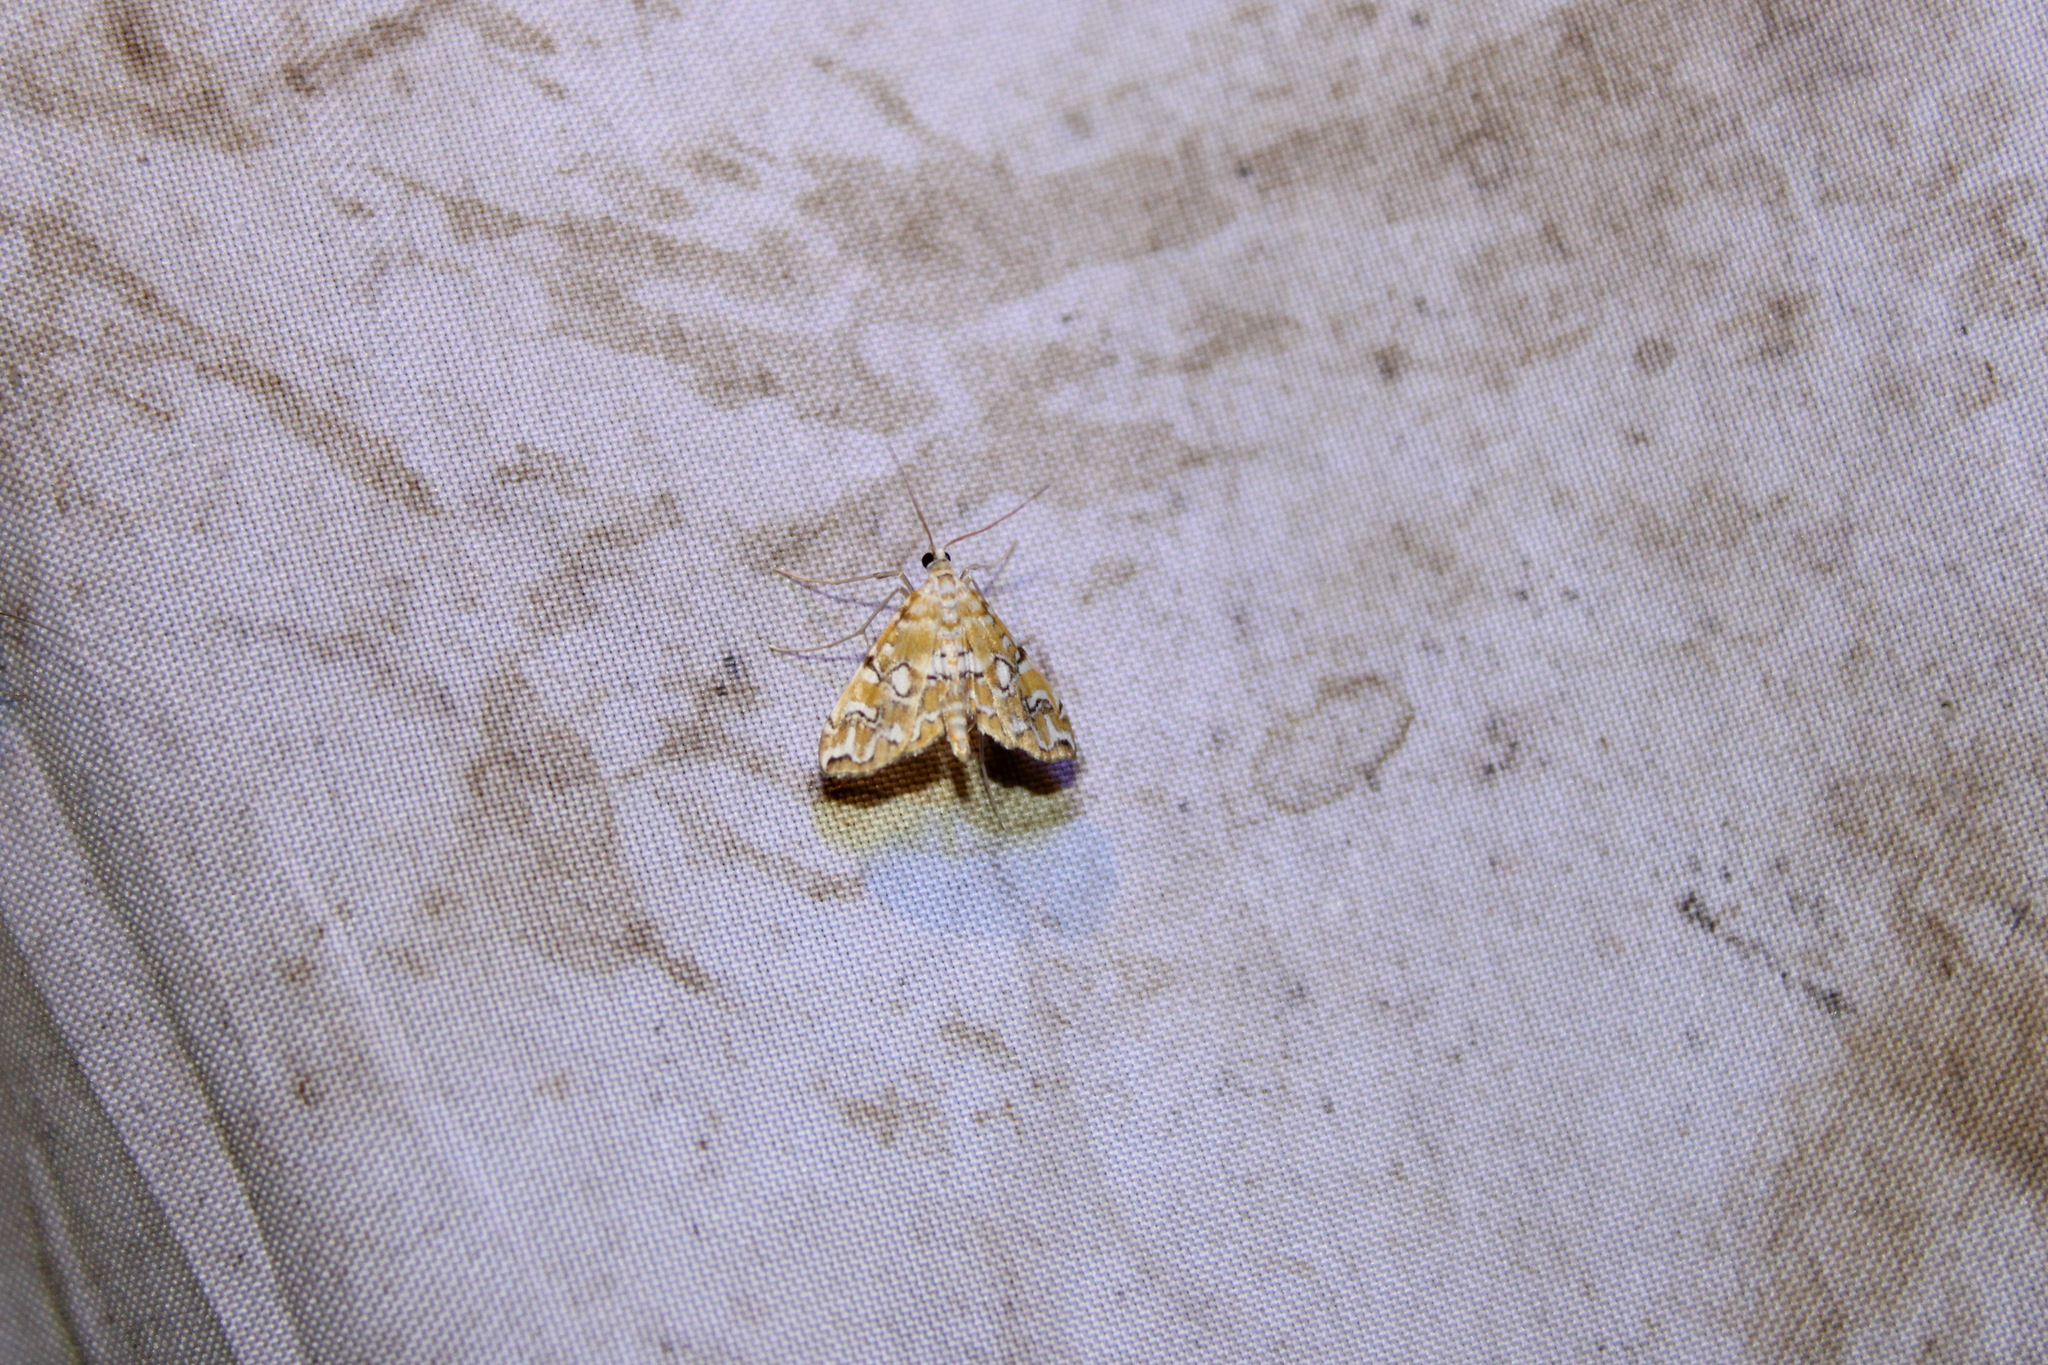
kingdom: Animalia
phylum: Arthropoda
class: Insecta
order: Lepidoptera
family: Crambidae
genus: Elophila
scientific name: Elophila icciusalis
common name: Pondside pyralid moth
